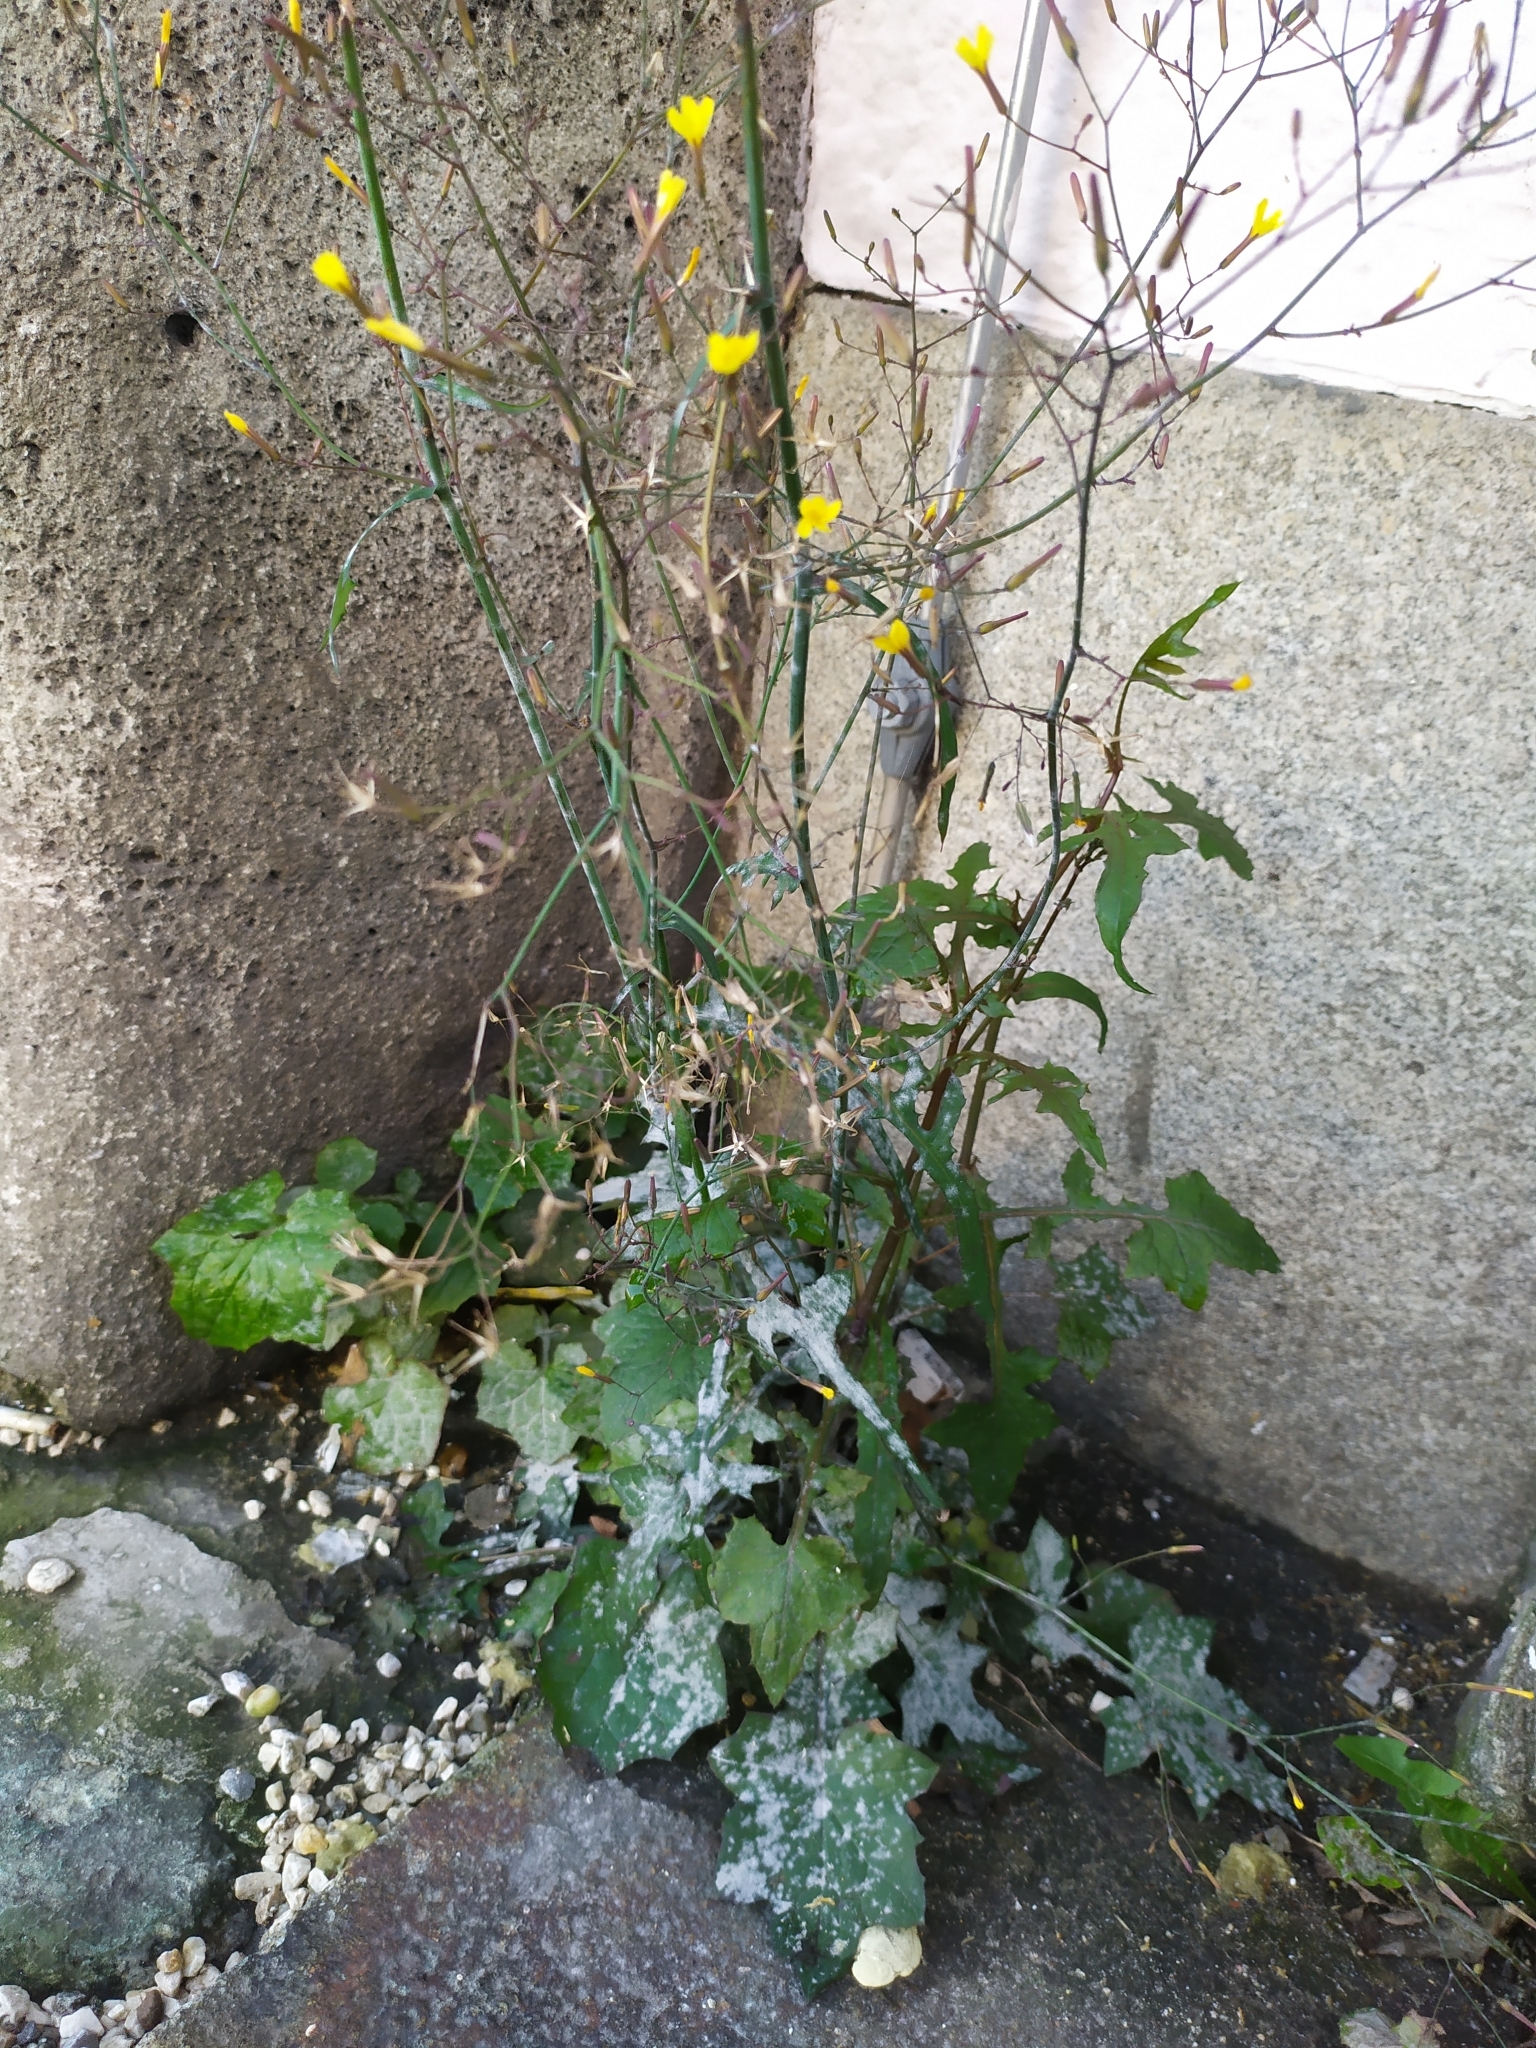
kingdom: Plantae
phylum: Tracheophyta
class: Magnoliopsida
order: Asterales
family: Asteraceae
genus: Mycelis
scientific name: Mycelis muralis
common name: Wall lettuce
